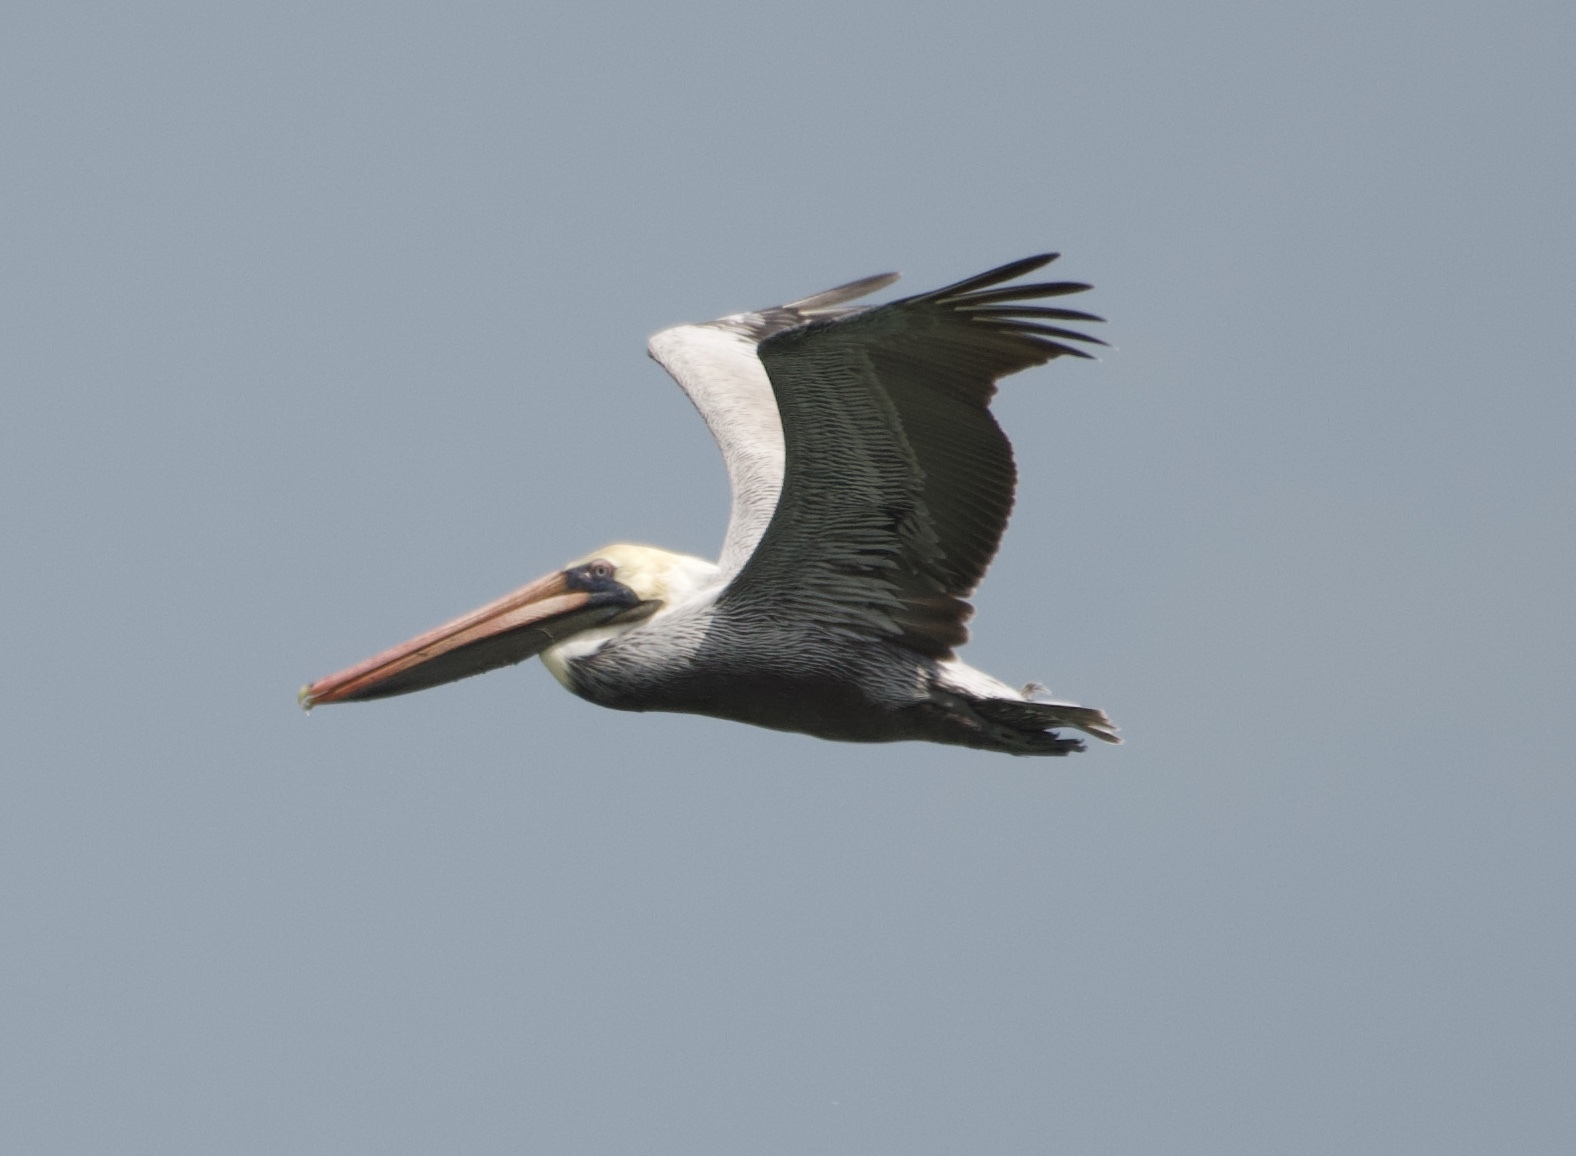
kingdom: Animalia
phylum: Chordata
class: Aves
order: Pelecaniformes
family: Pelecanidae
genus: Pelecanus
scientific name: Pelecanus occidentalis
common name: Brown pelican
